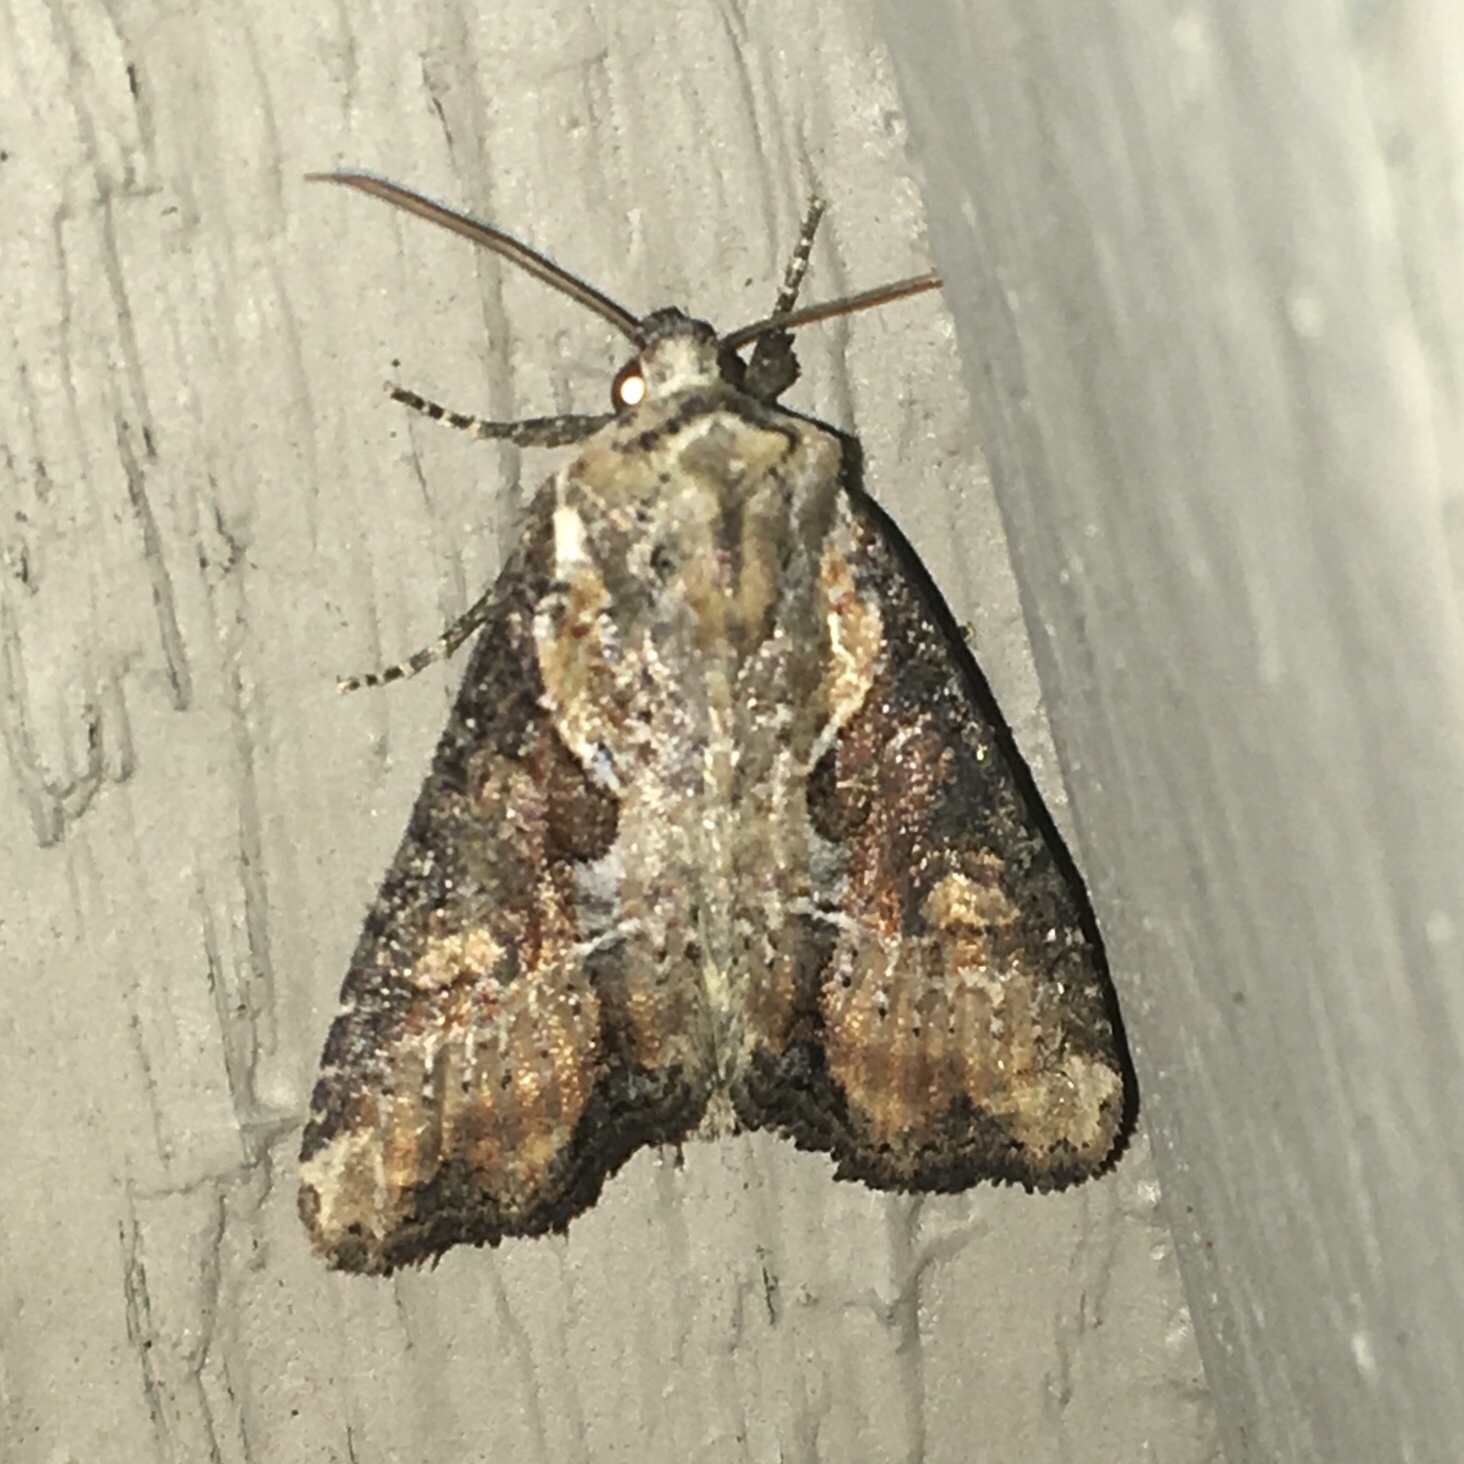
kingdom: Animalia
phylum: Arthropoda
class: Insecta
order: Lepidoptera
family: Noctuidae
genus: Lateroligia
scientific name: Lateroligia ophiogramma
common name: Double lobed
